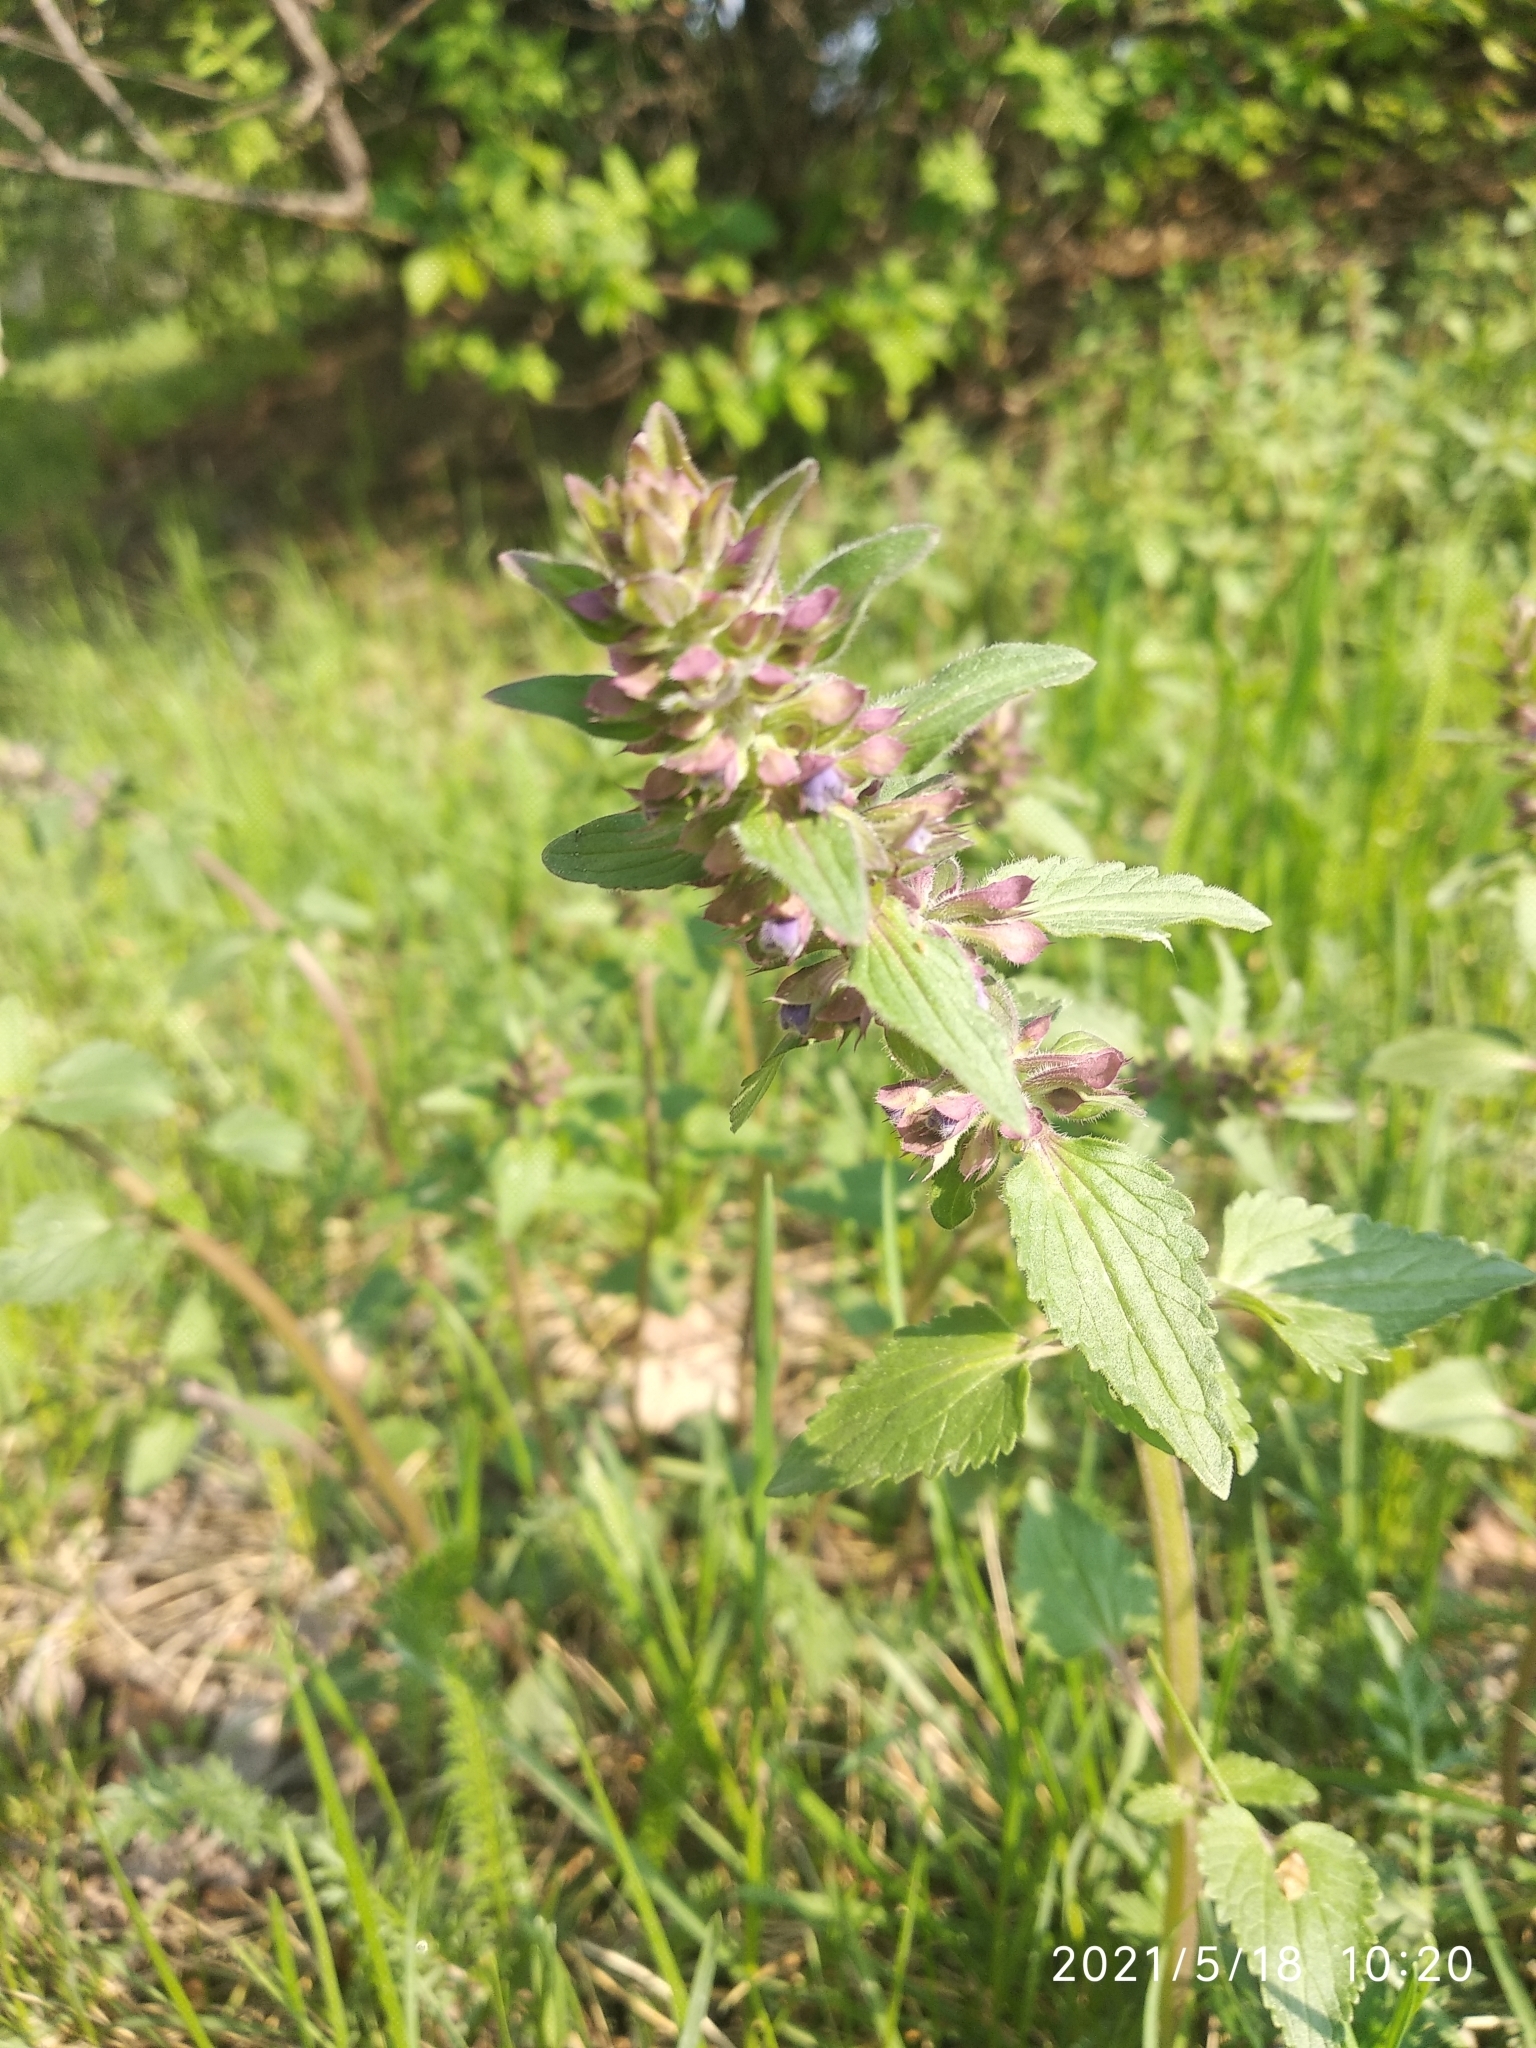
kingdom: Plantae
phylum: Tracheophyta
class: Magnoliopsida
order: Lamiales
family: Lamiaceae
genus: Dracocephalum
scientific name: Dracocephalum nutans
